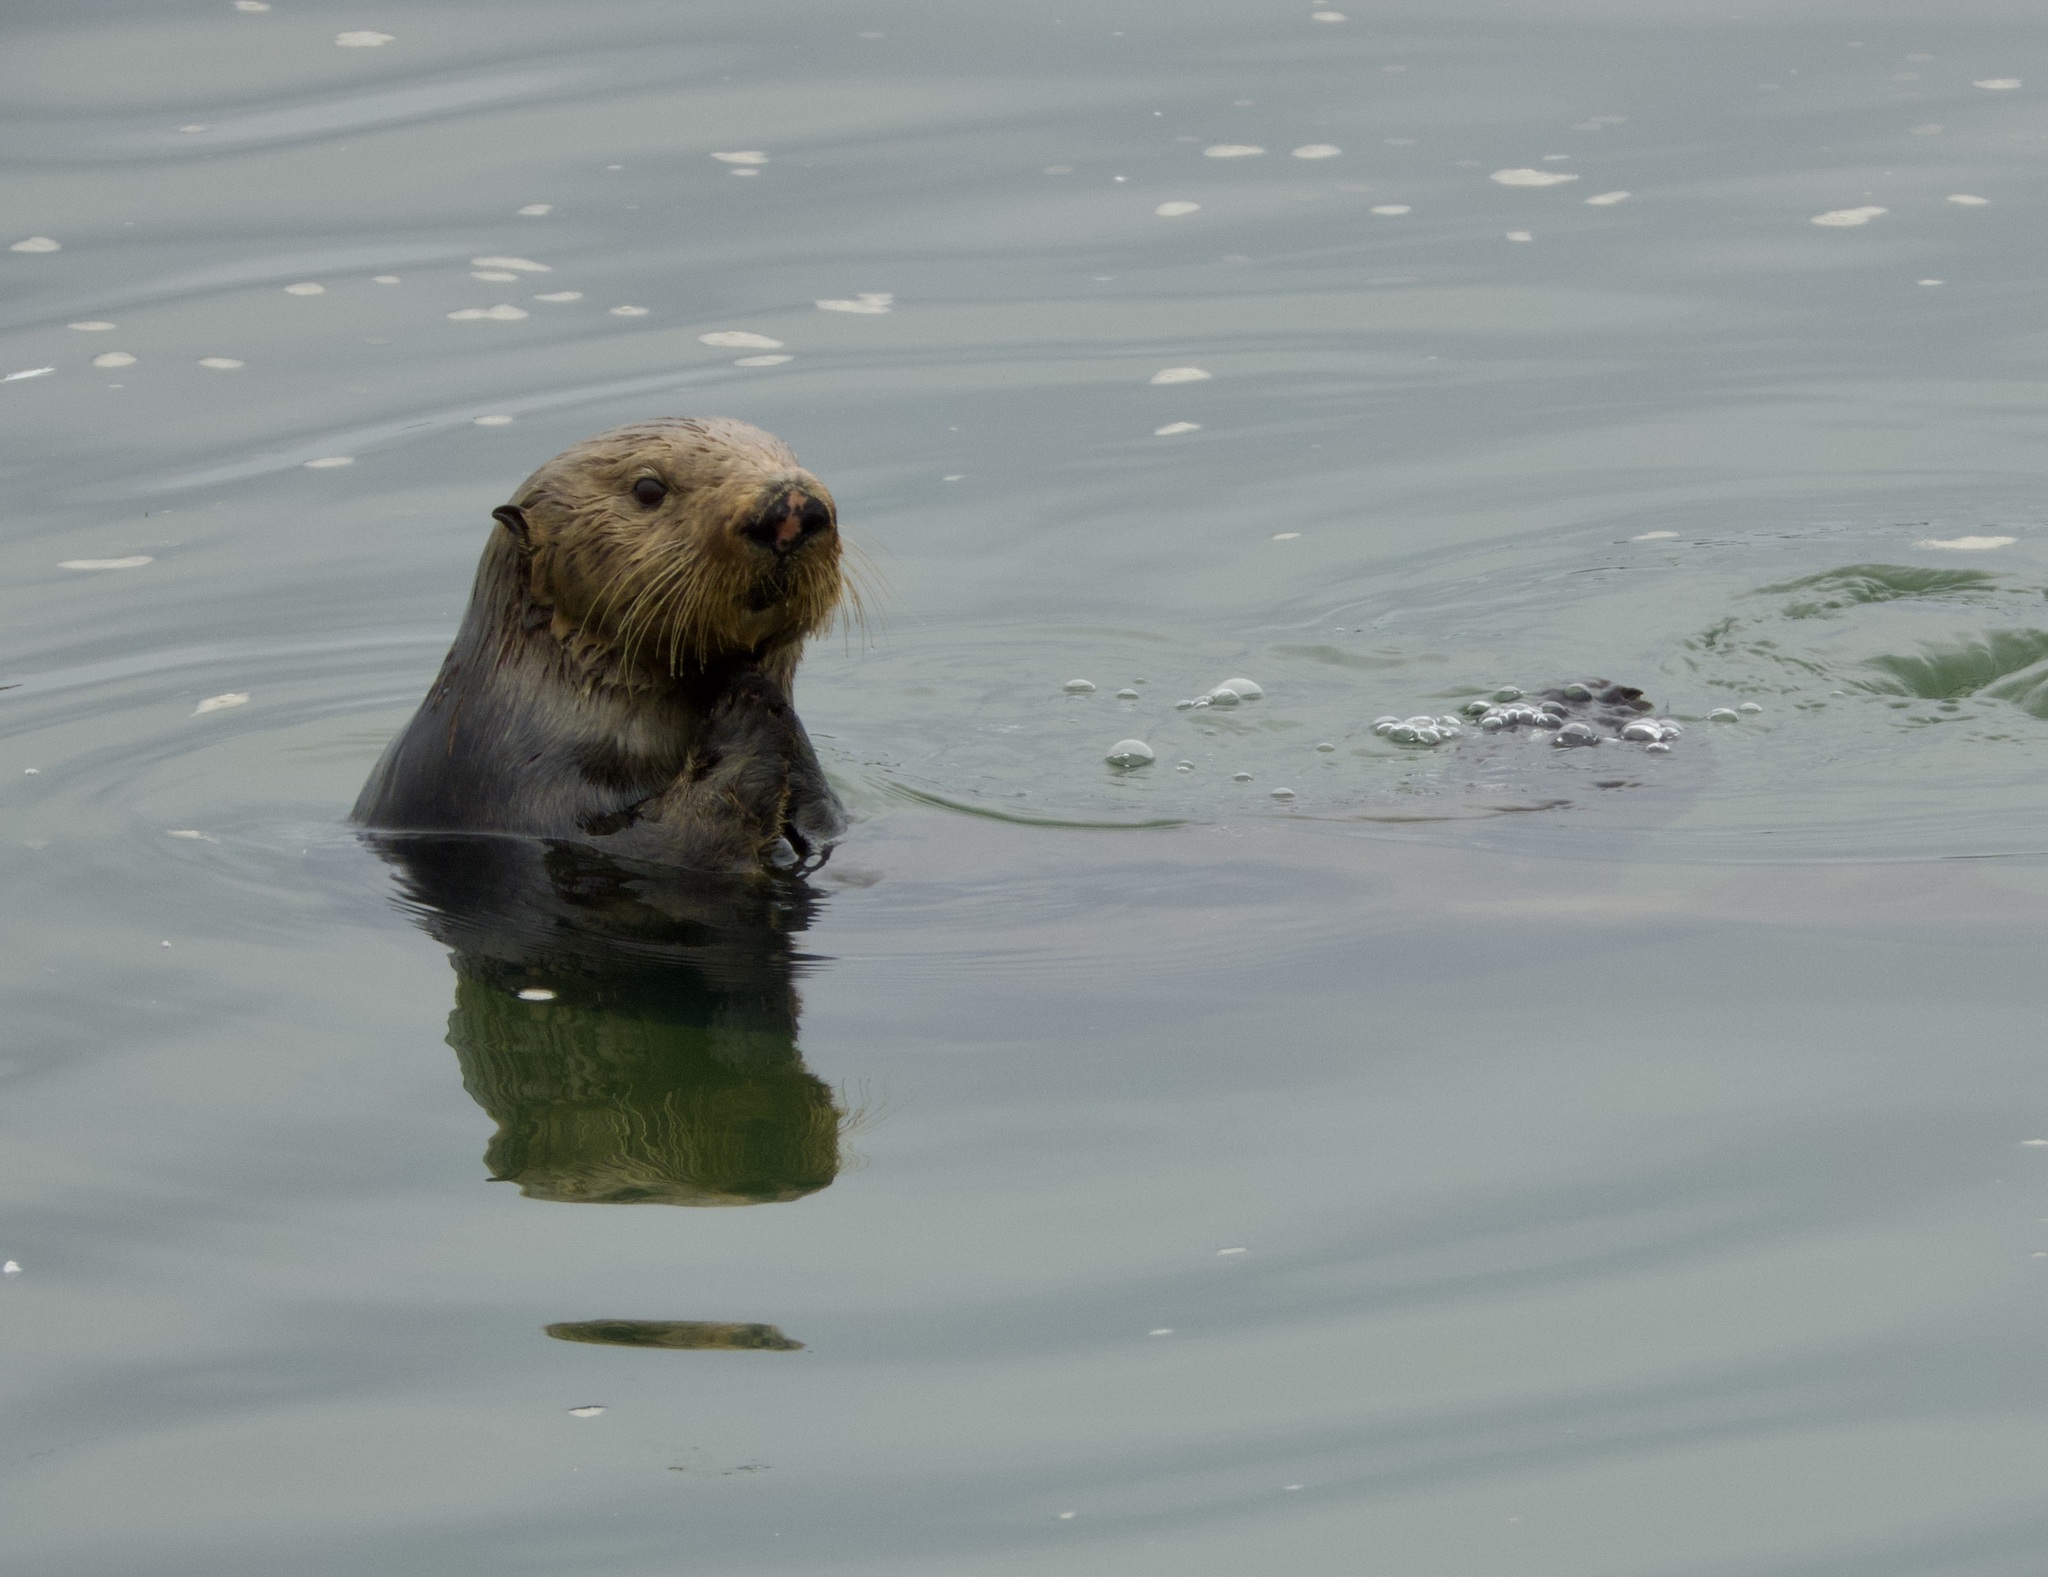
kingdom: Animalia
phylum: Chordata
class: Mammalia
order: Carnivora
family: Mustelidae
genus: Enhydra
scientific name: Enhydra lutris
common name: Sea otter
